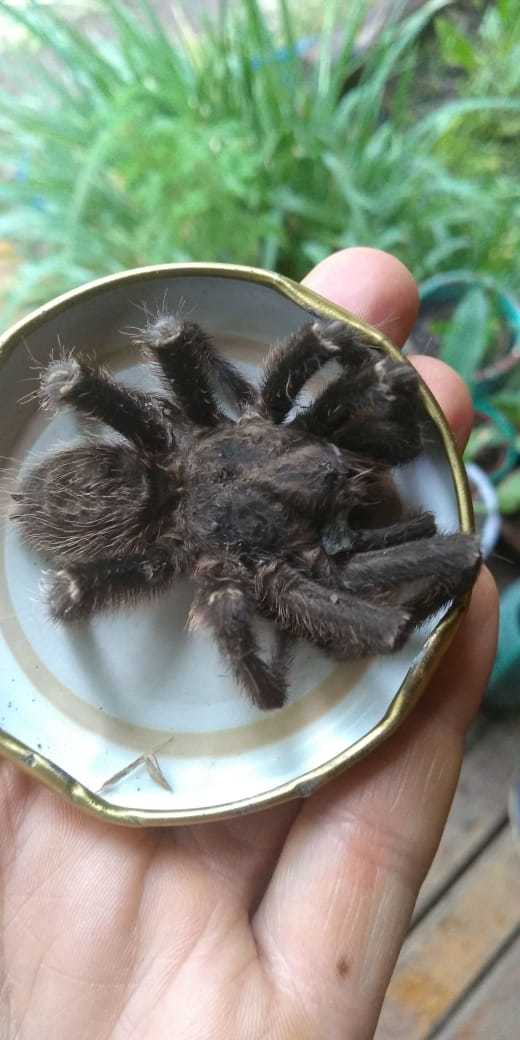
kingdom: Animalia
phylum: Arthropoda
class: Arachnida
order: Araneae
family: Theraphosidae
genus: Grammostola
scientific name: Grammostola vachoni
